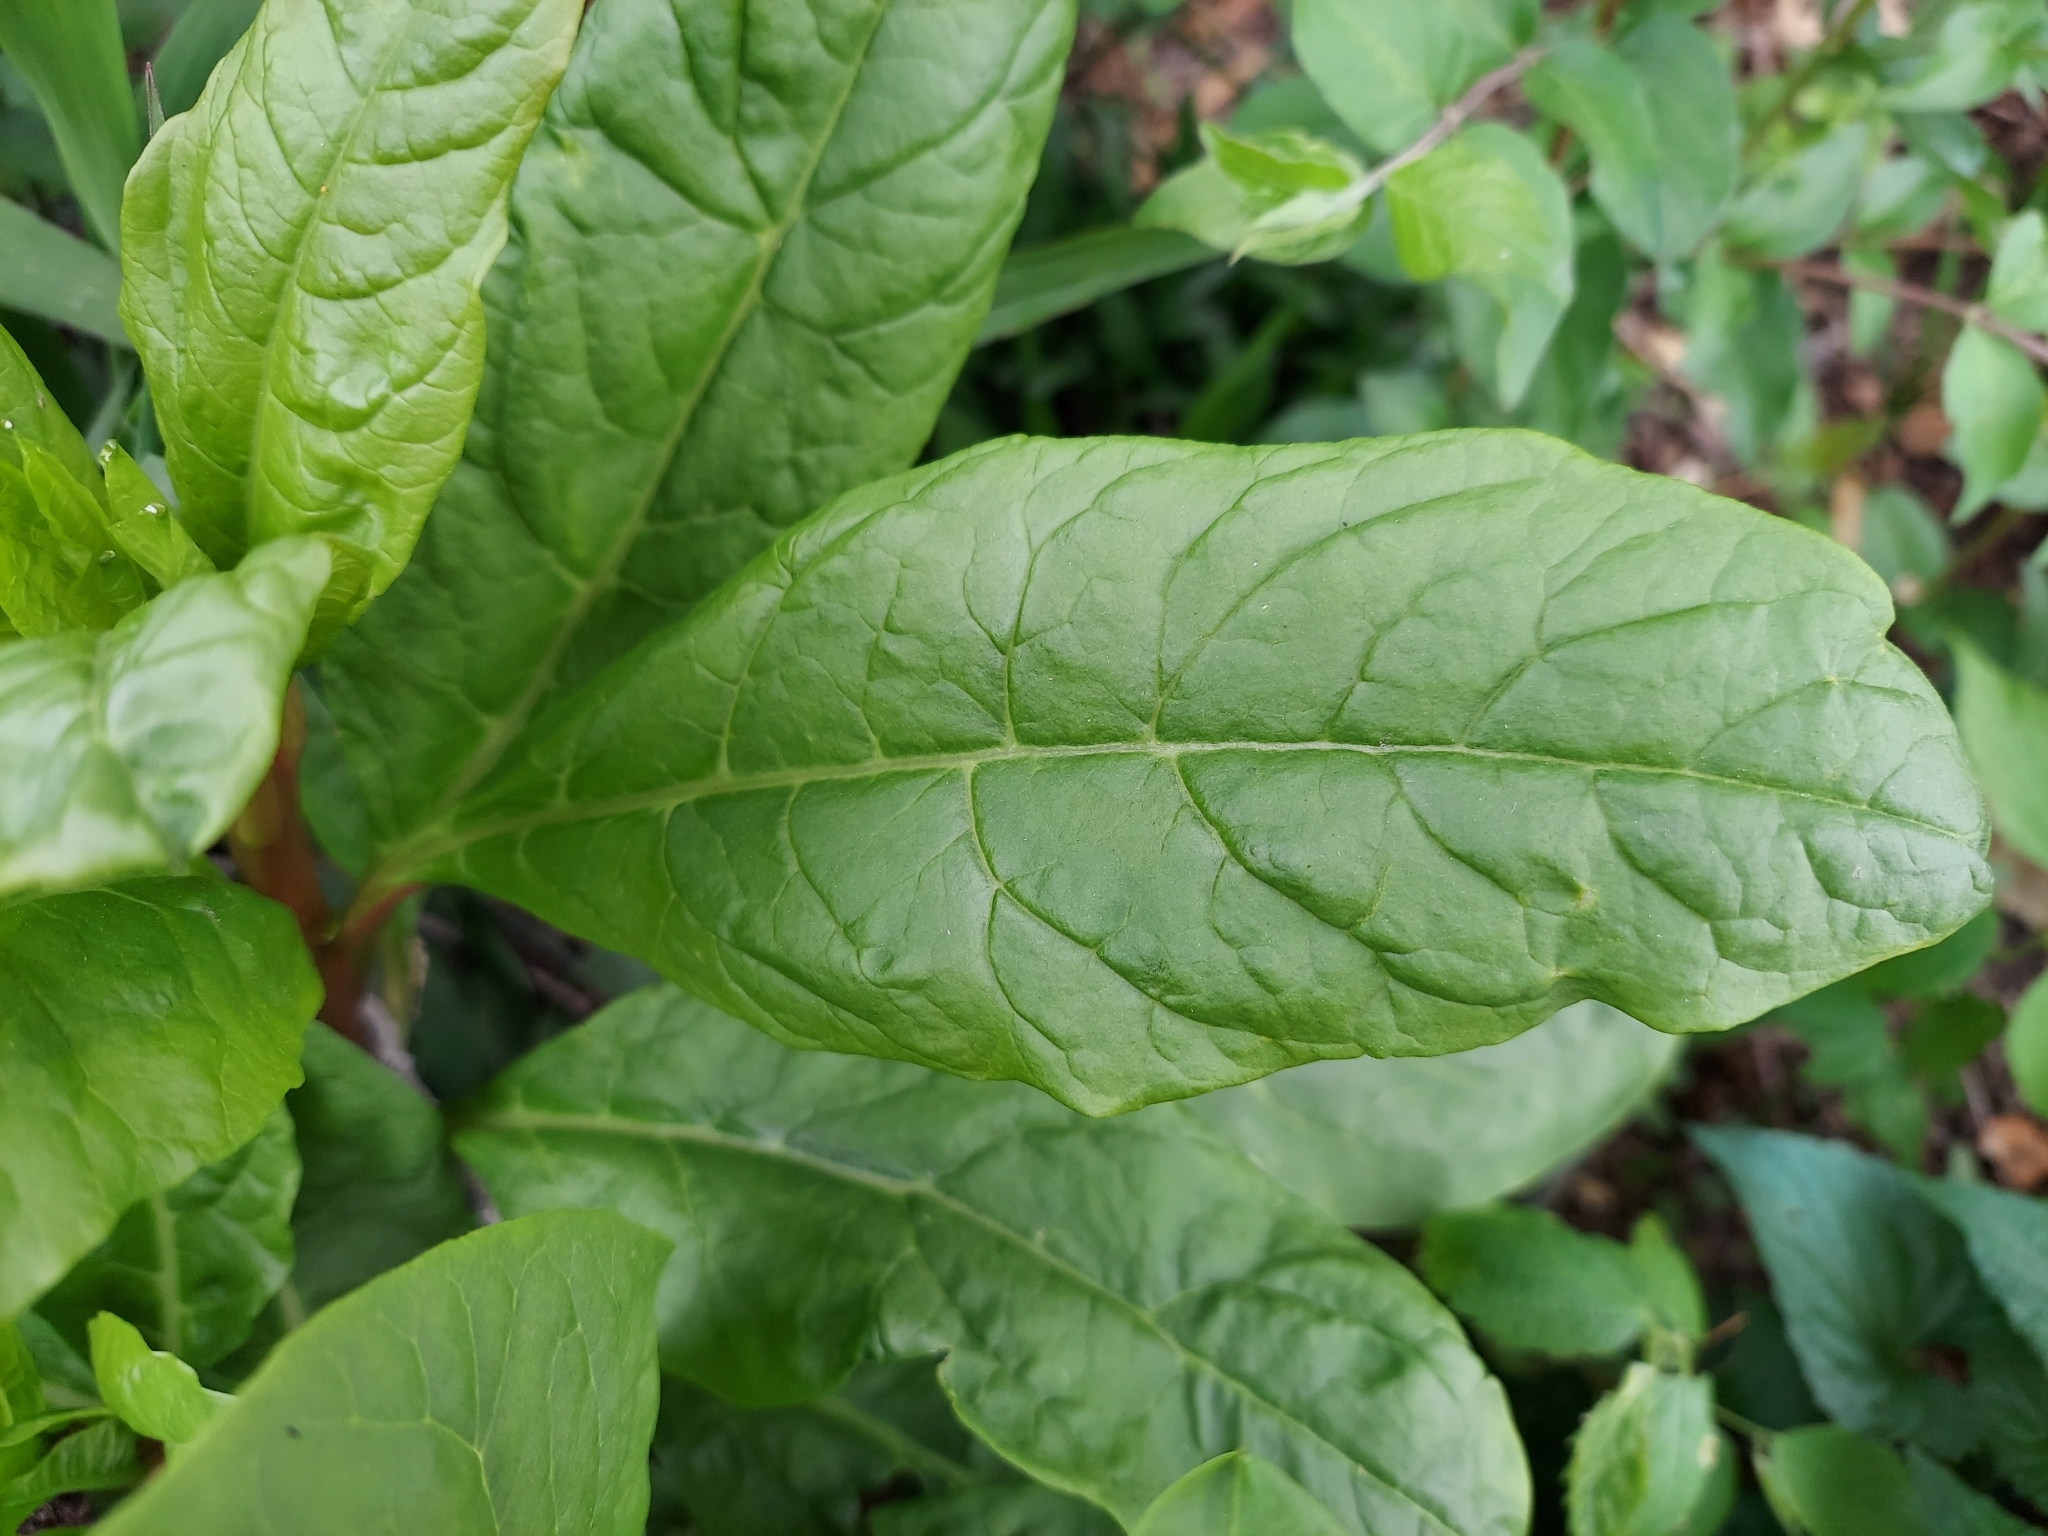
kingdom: Plantae
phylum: Tracheophyta
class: Magnoliopsida
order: Caryophyllales
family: Phytolaccaceae
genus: Phytolacca
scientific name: Phytolacca americana
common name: American pokeweed
